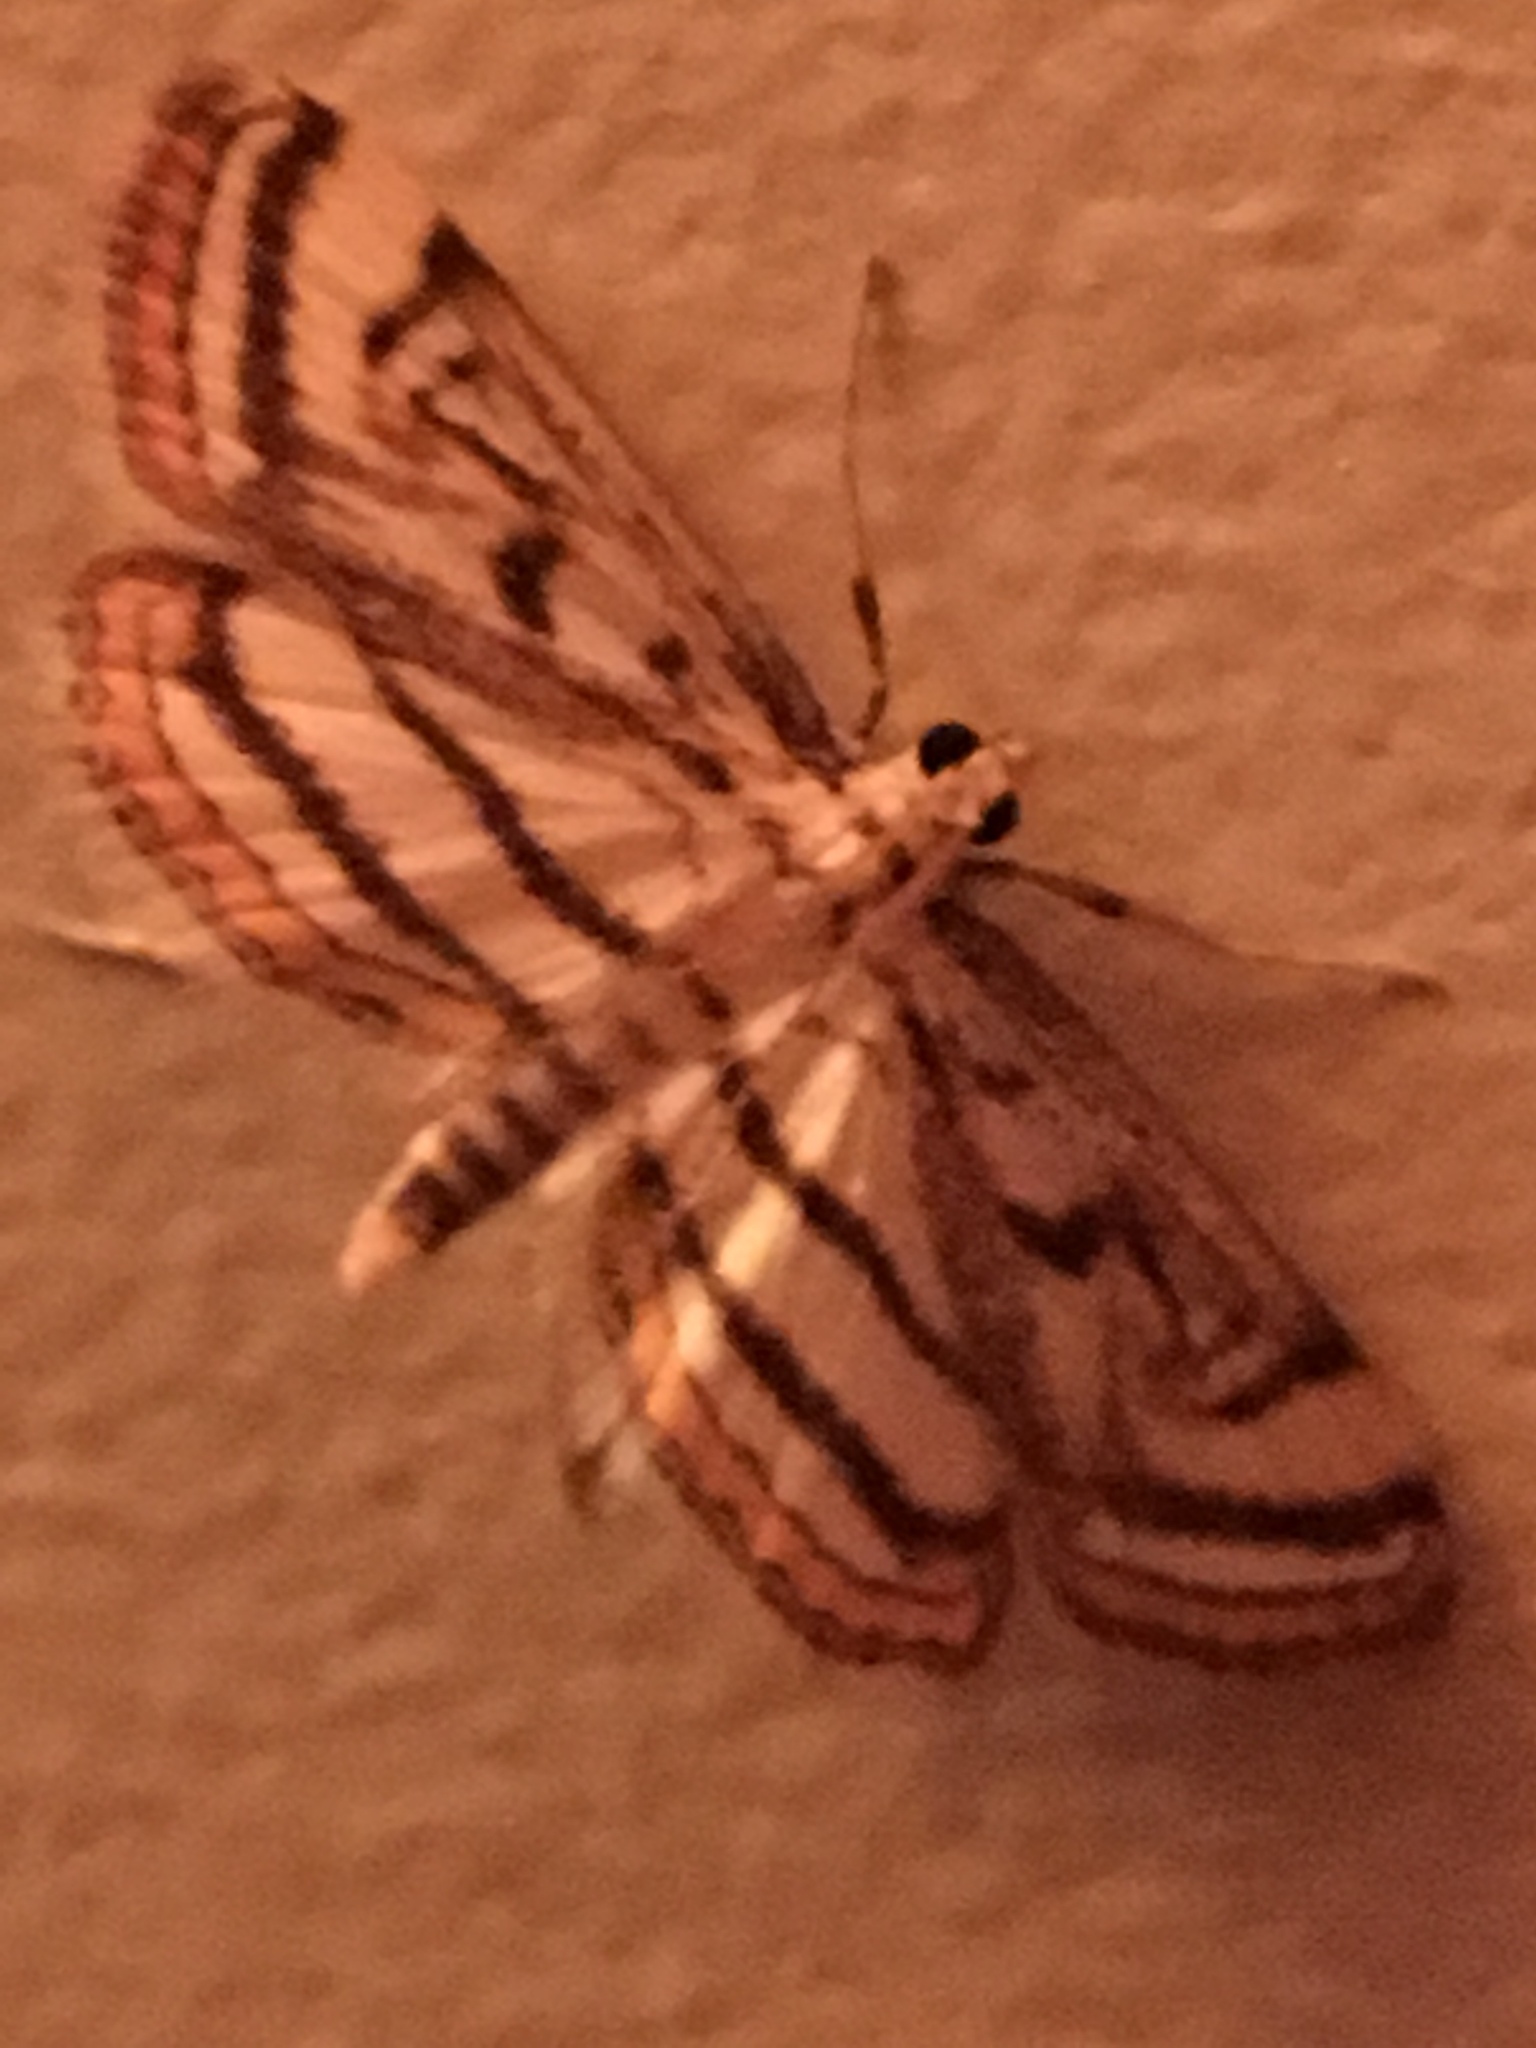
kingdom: Animalia
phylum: Arthropoda
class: Insecta
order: Lepidoptera
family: Crambidae
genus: Parapoynx
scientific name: Parapoynx badiusalis
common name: Chestnut-marked pondweed moth
